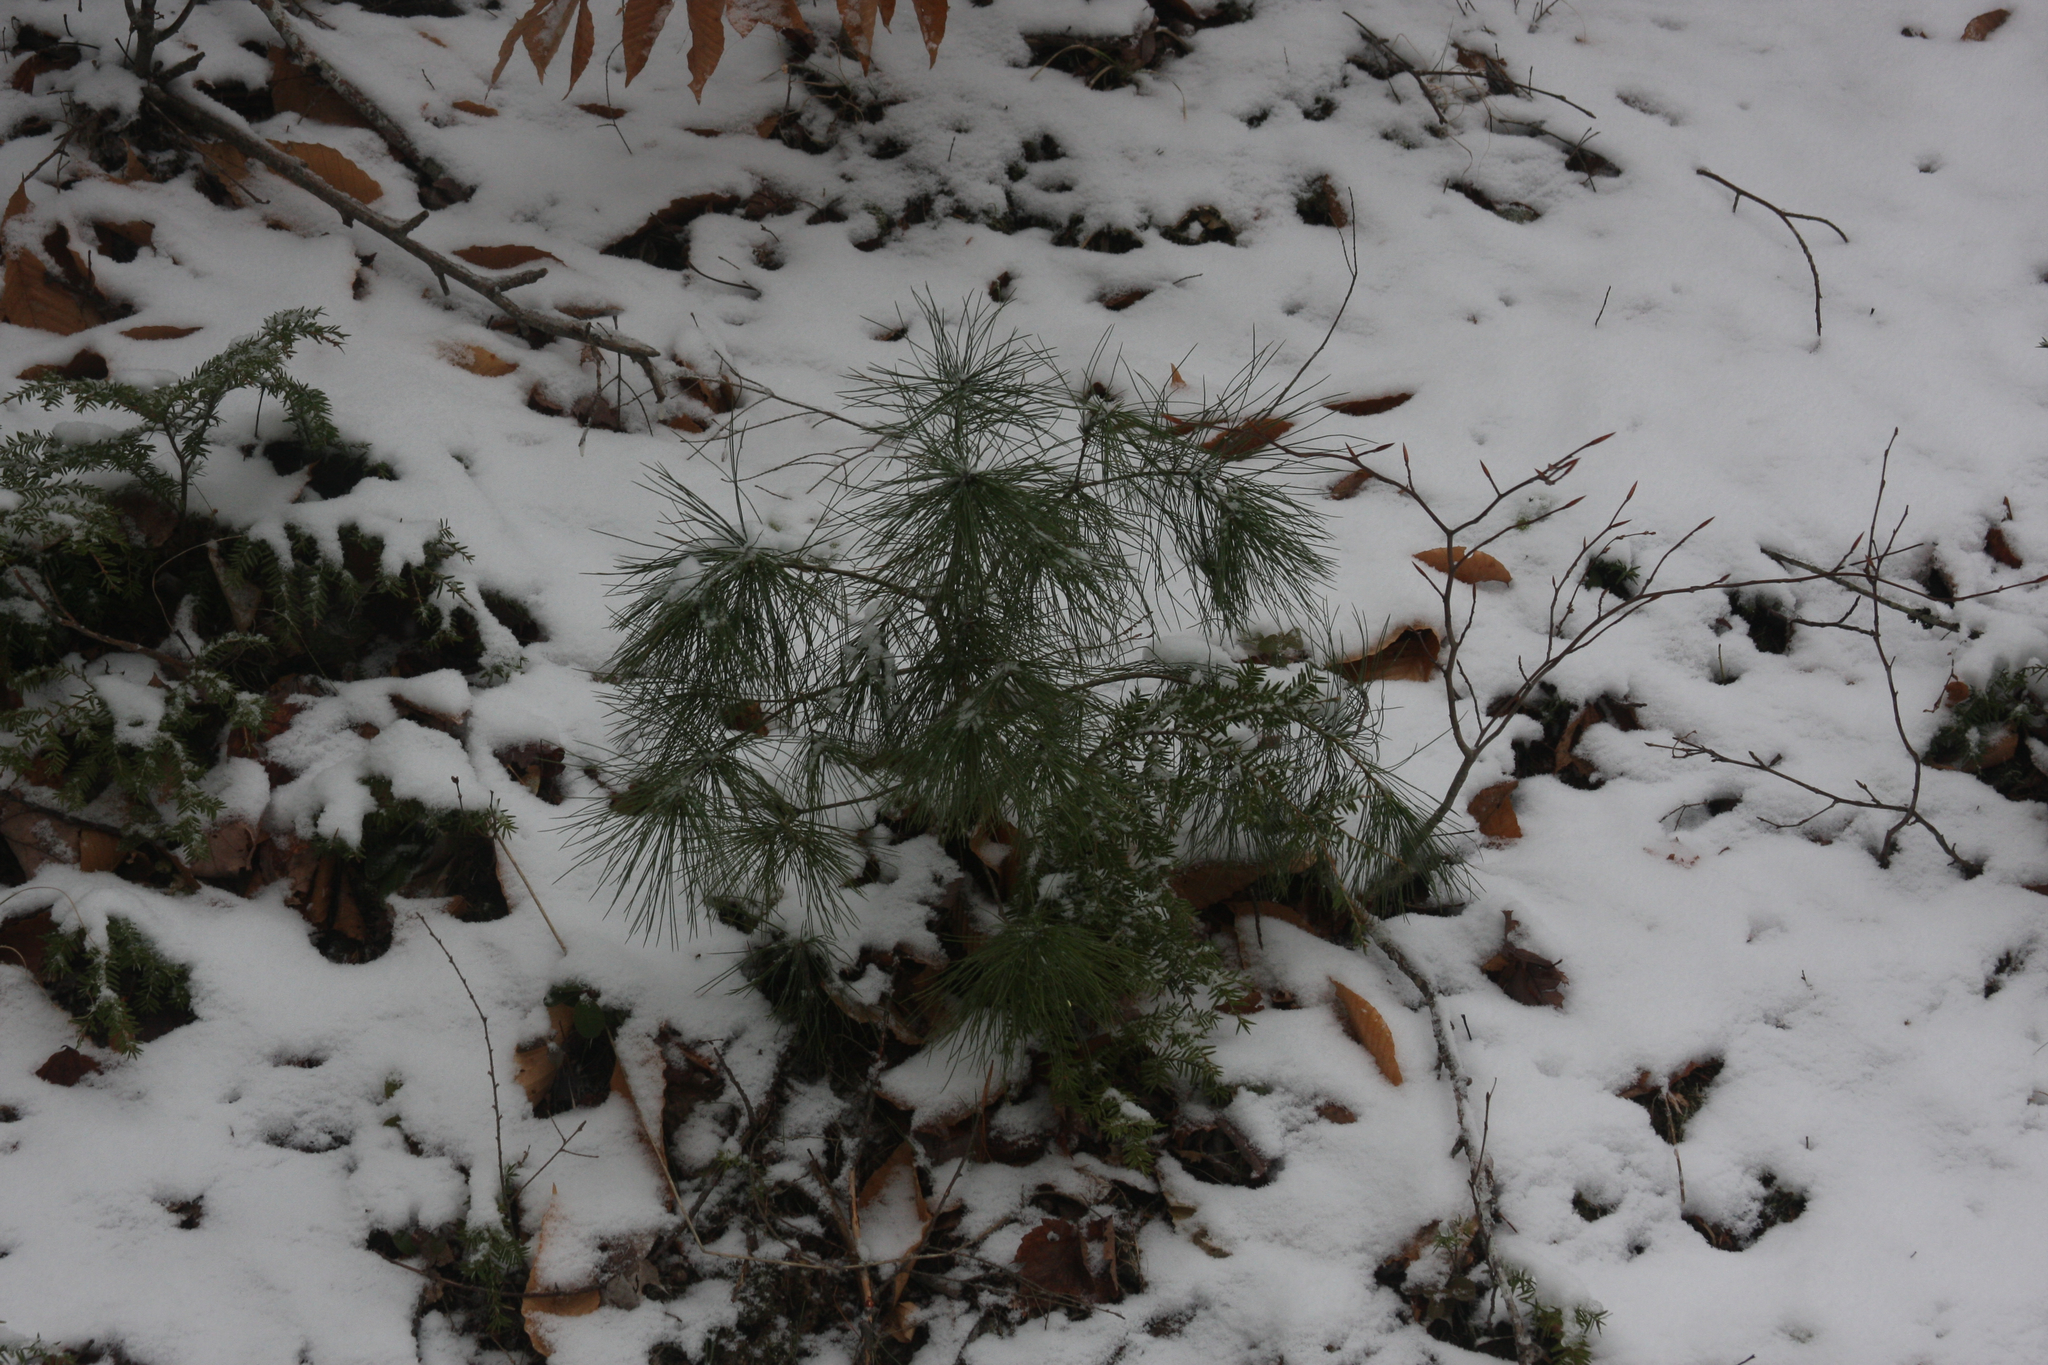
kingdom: Plantae
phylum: Tracheophyta
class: Pinopsida
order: Pinales
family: Pinaceae
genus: Pinus
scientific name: Pinus strobus
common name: Weymouth pine
